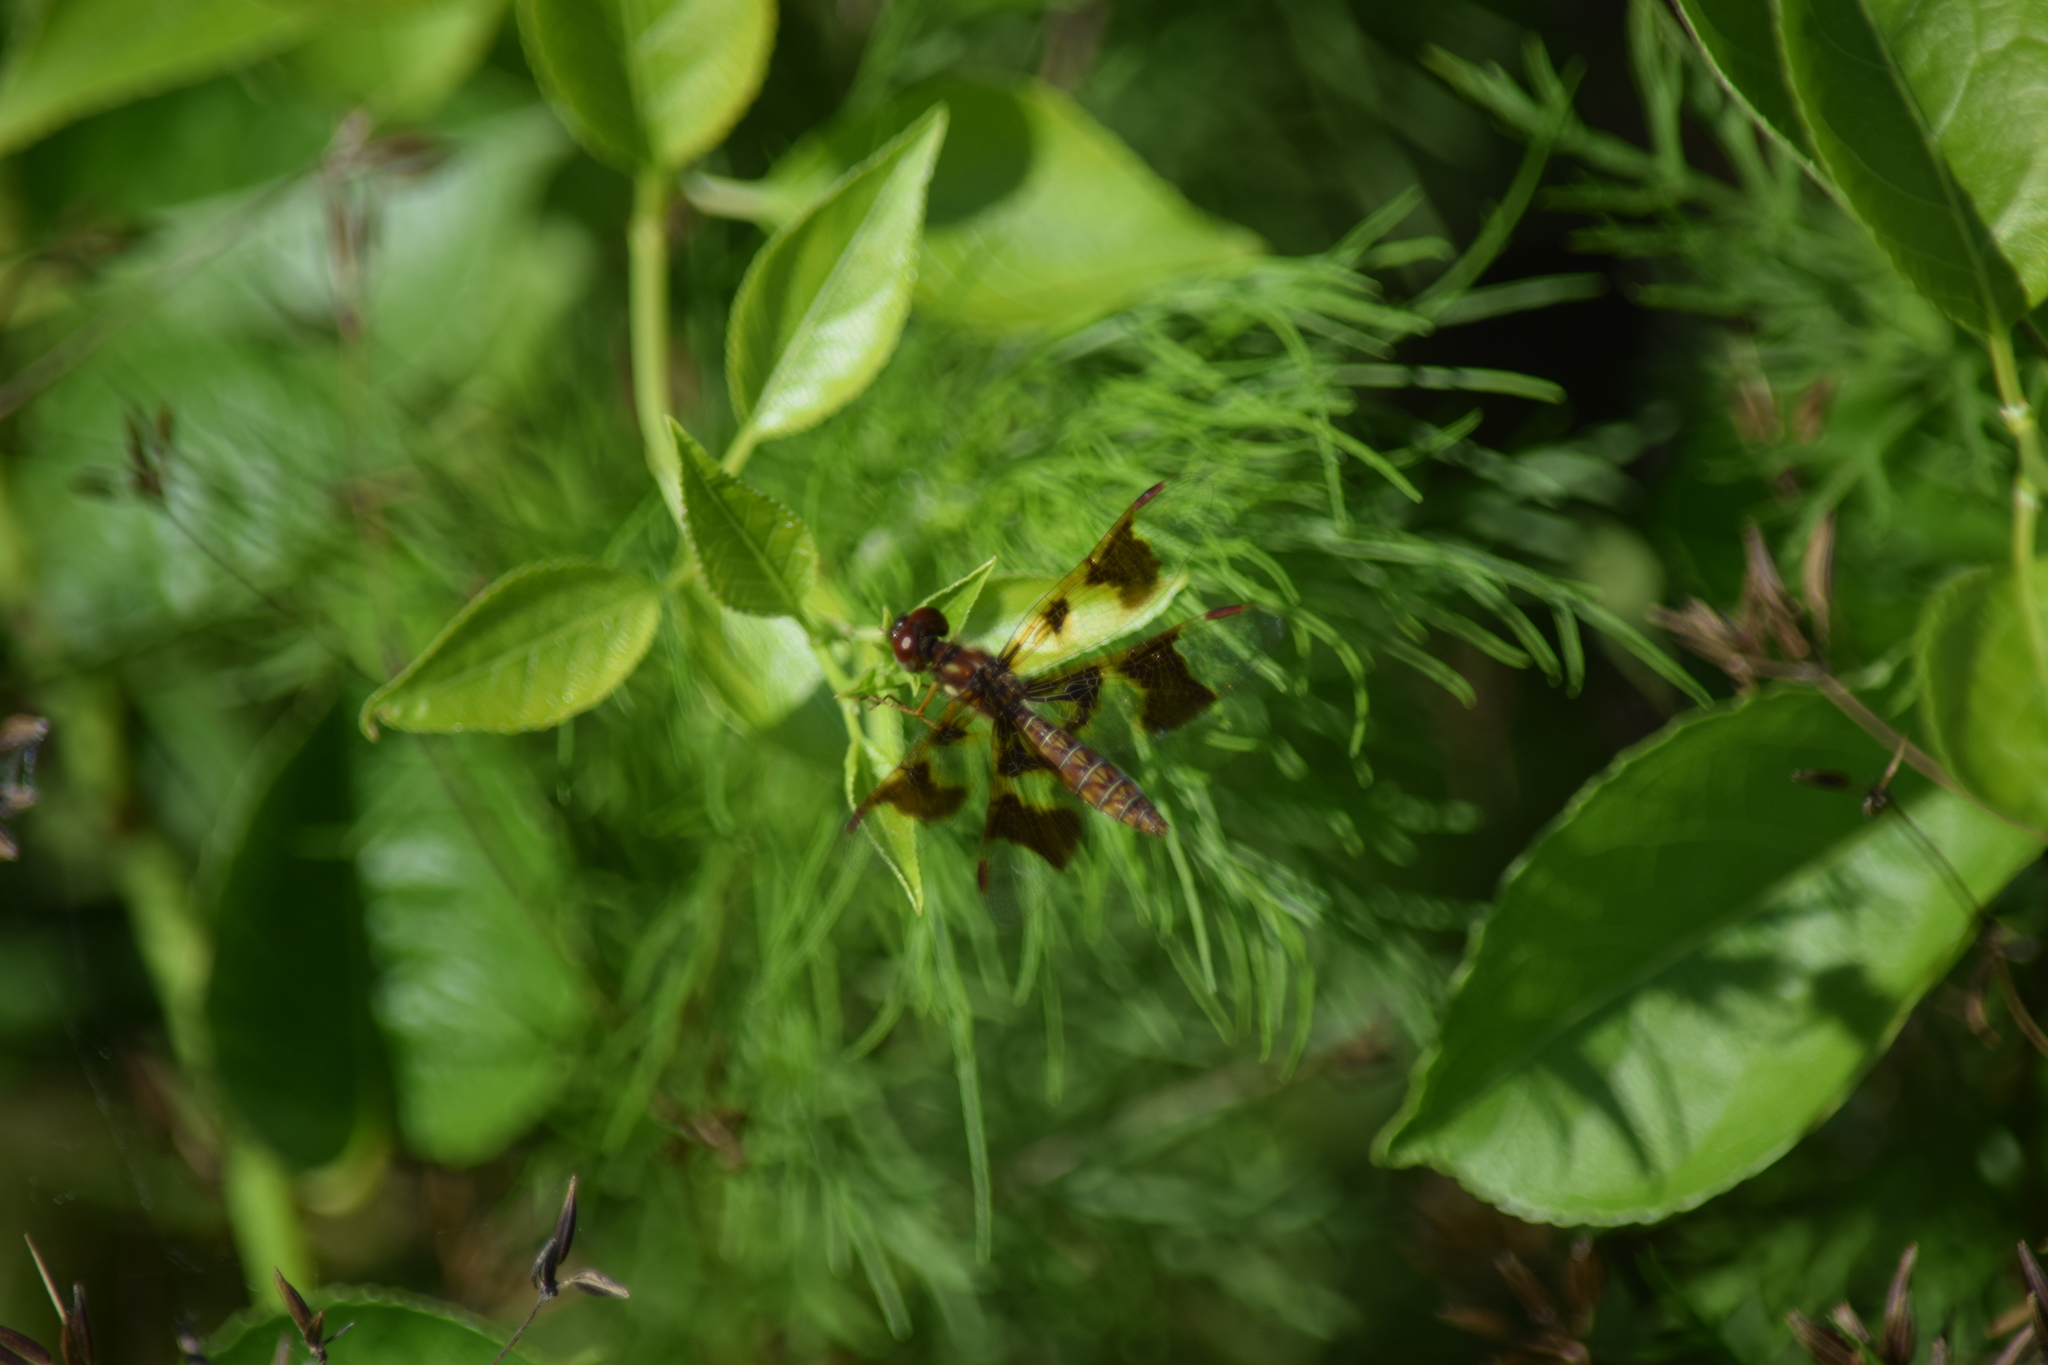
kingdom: Animalia
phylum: Arthropoda
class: Insecta
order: Odonata
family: Libellulidae
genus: Perithemis
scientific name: Perithemis tenera
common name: Eastern amberwing
